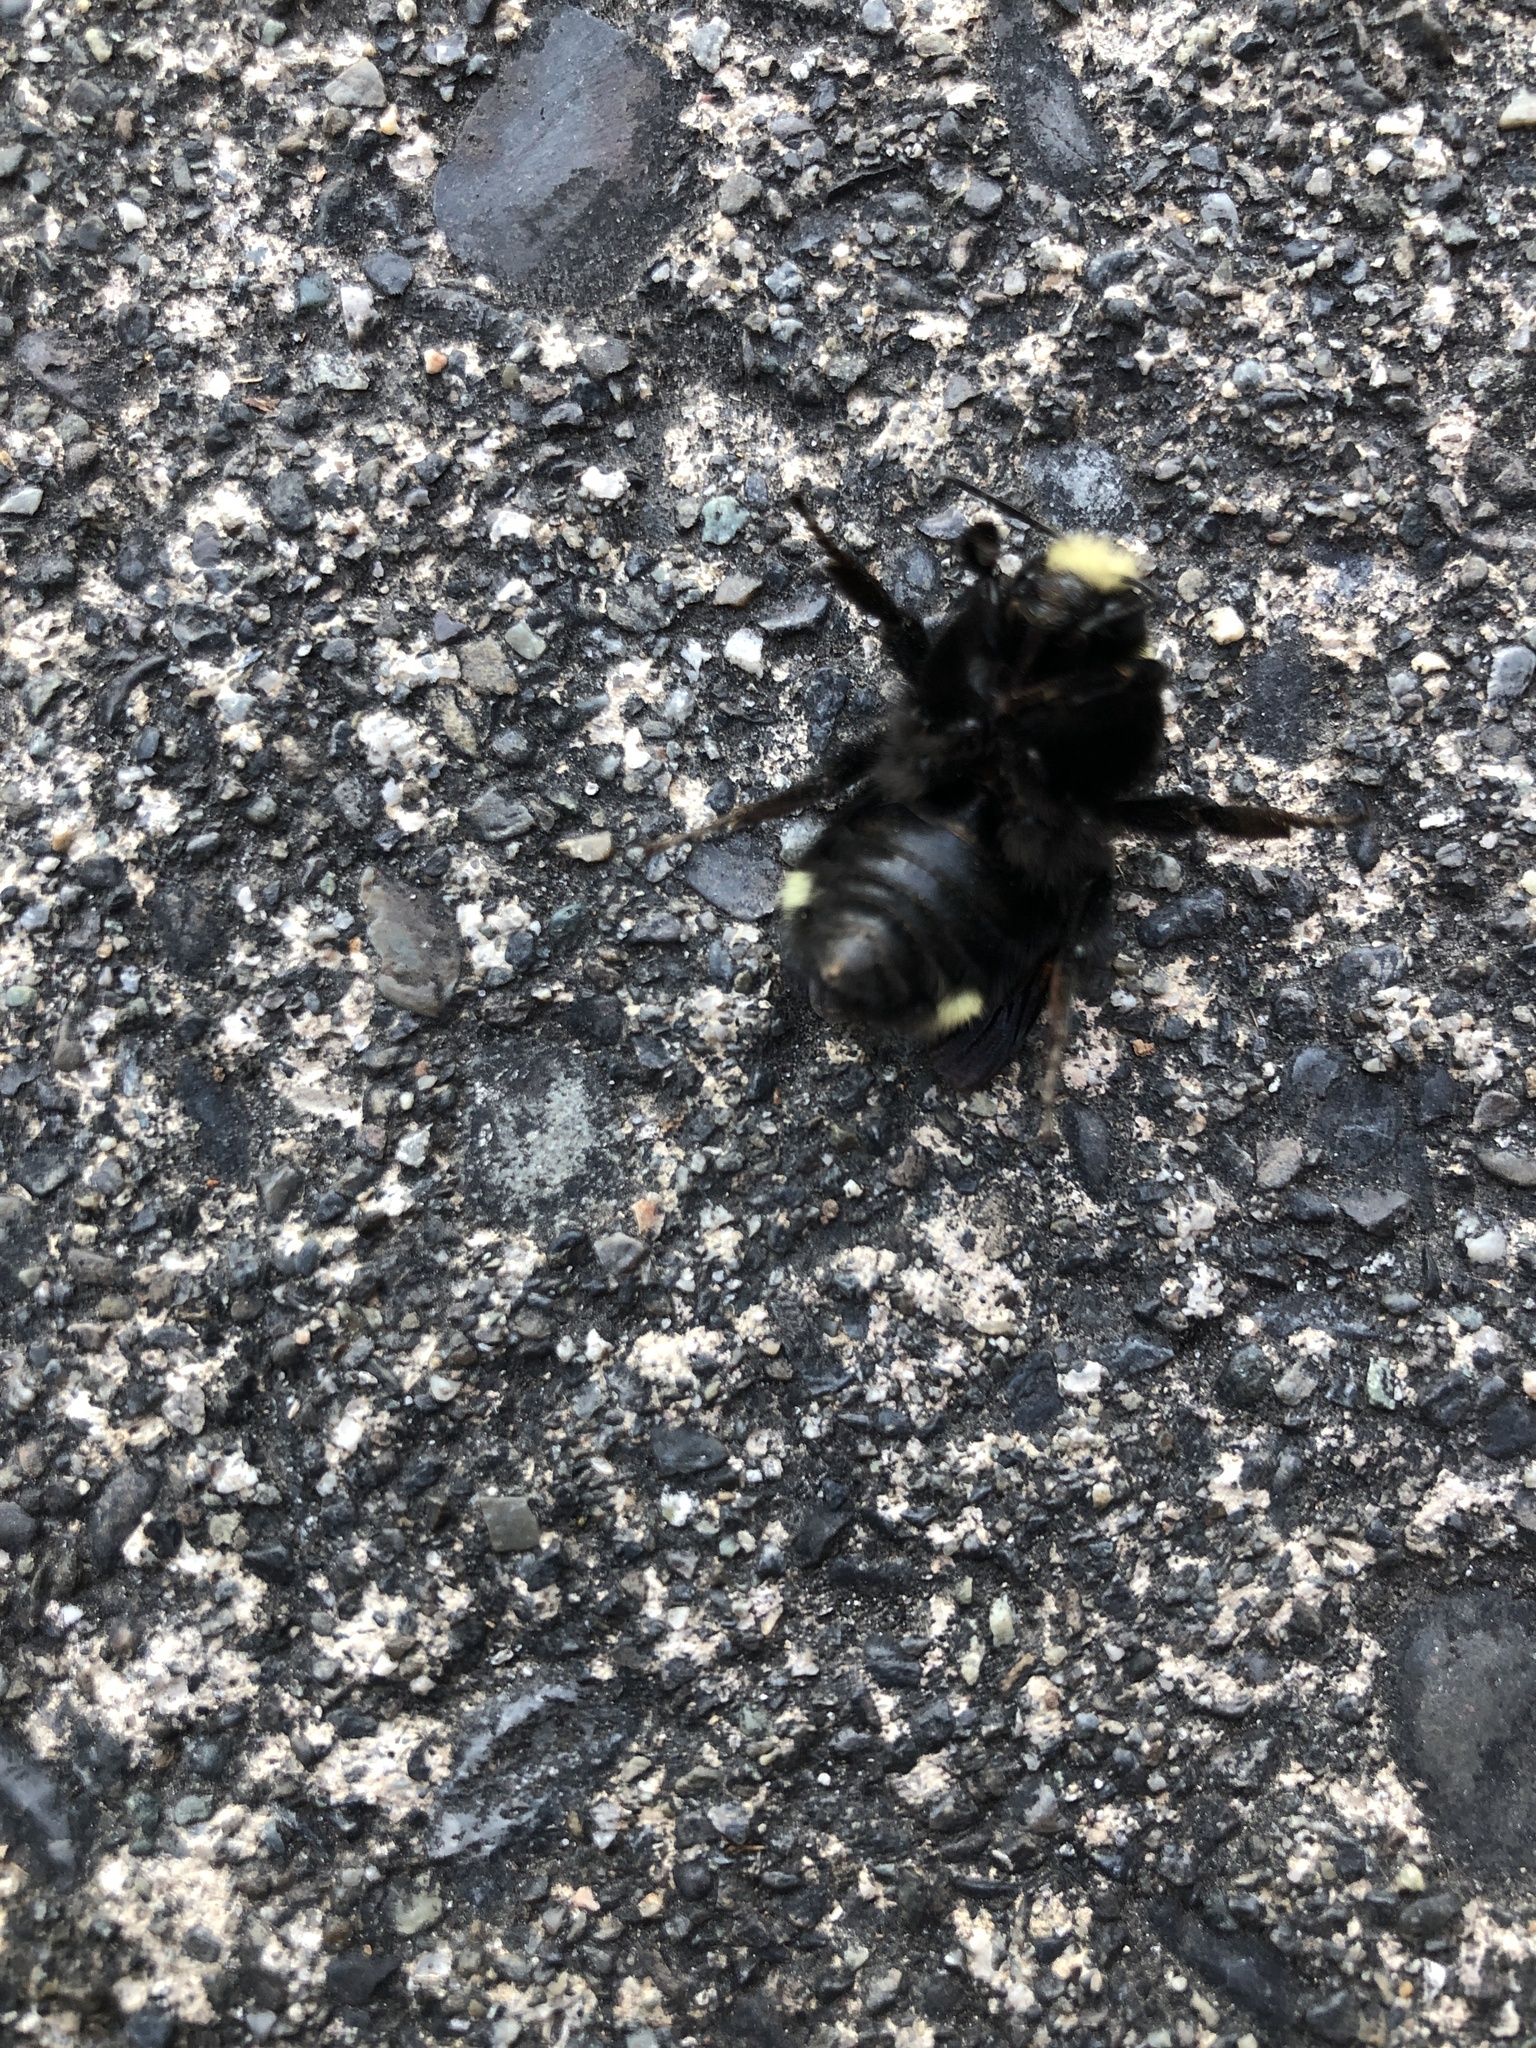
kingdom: Animalia
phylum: Arthropoda
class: Insecta
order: Hymenoptera
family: Apidae
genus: Bombus
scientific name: Bombus vosnesenskii
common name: Vosnesensky bumble bee
